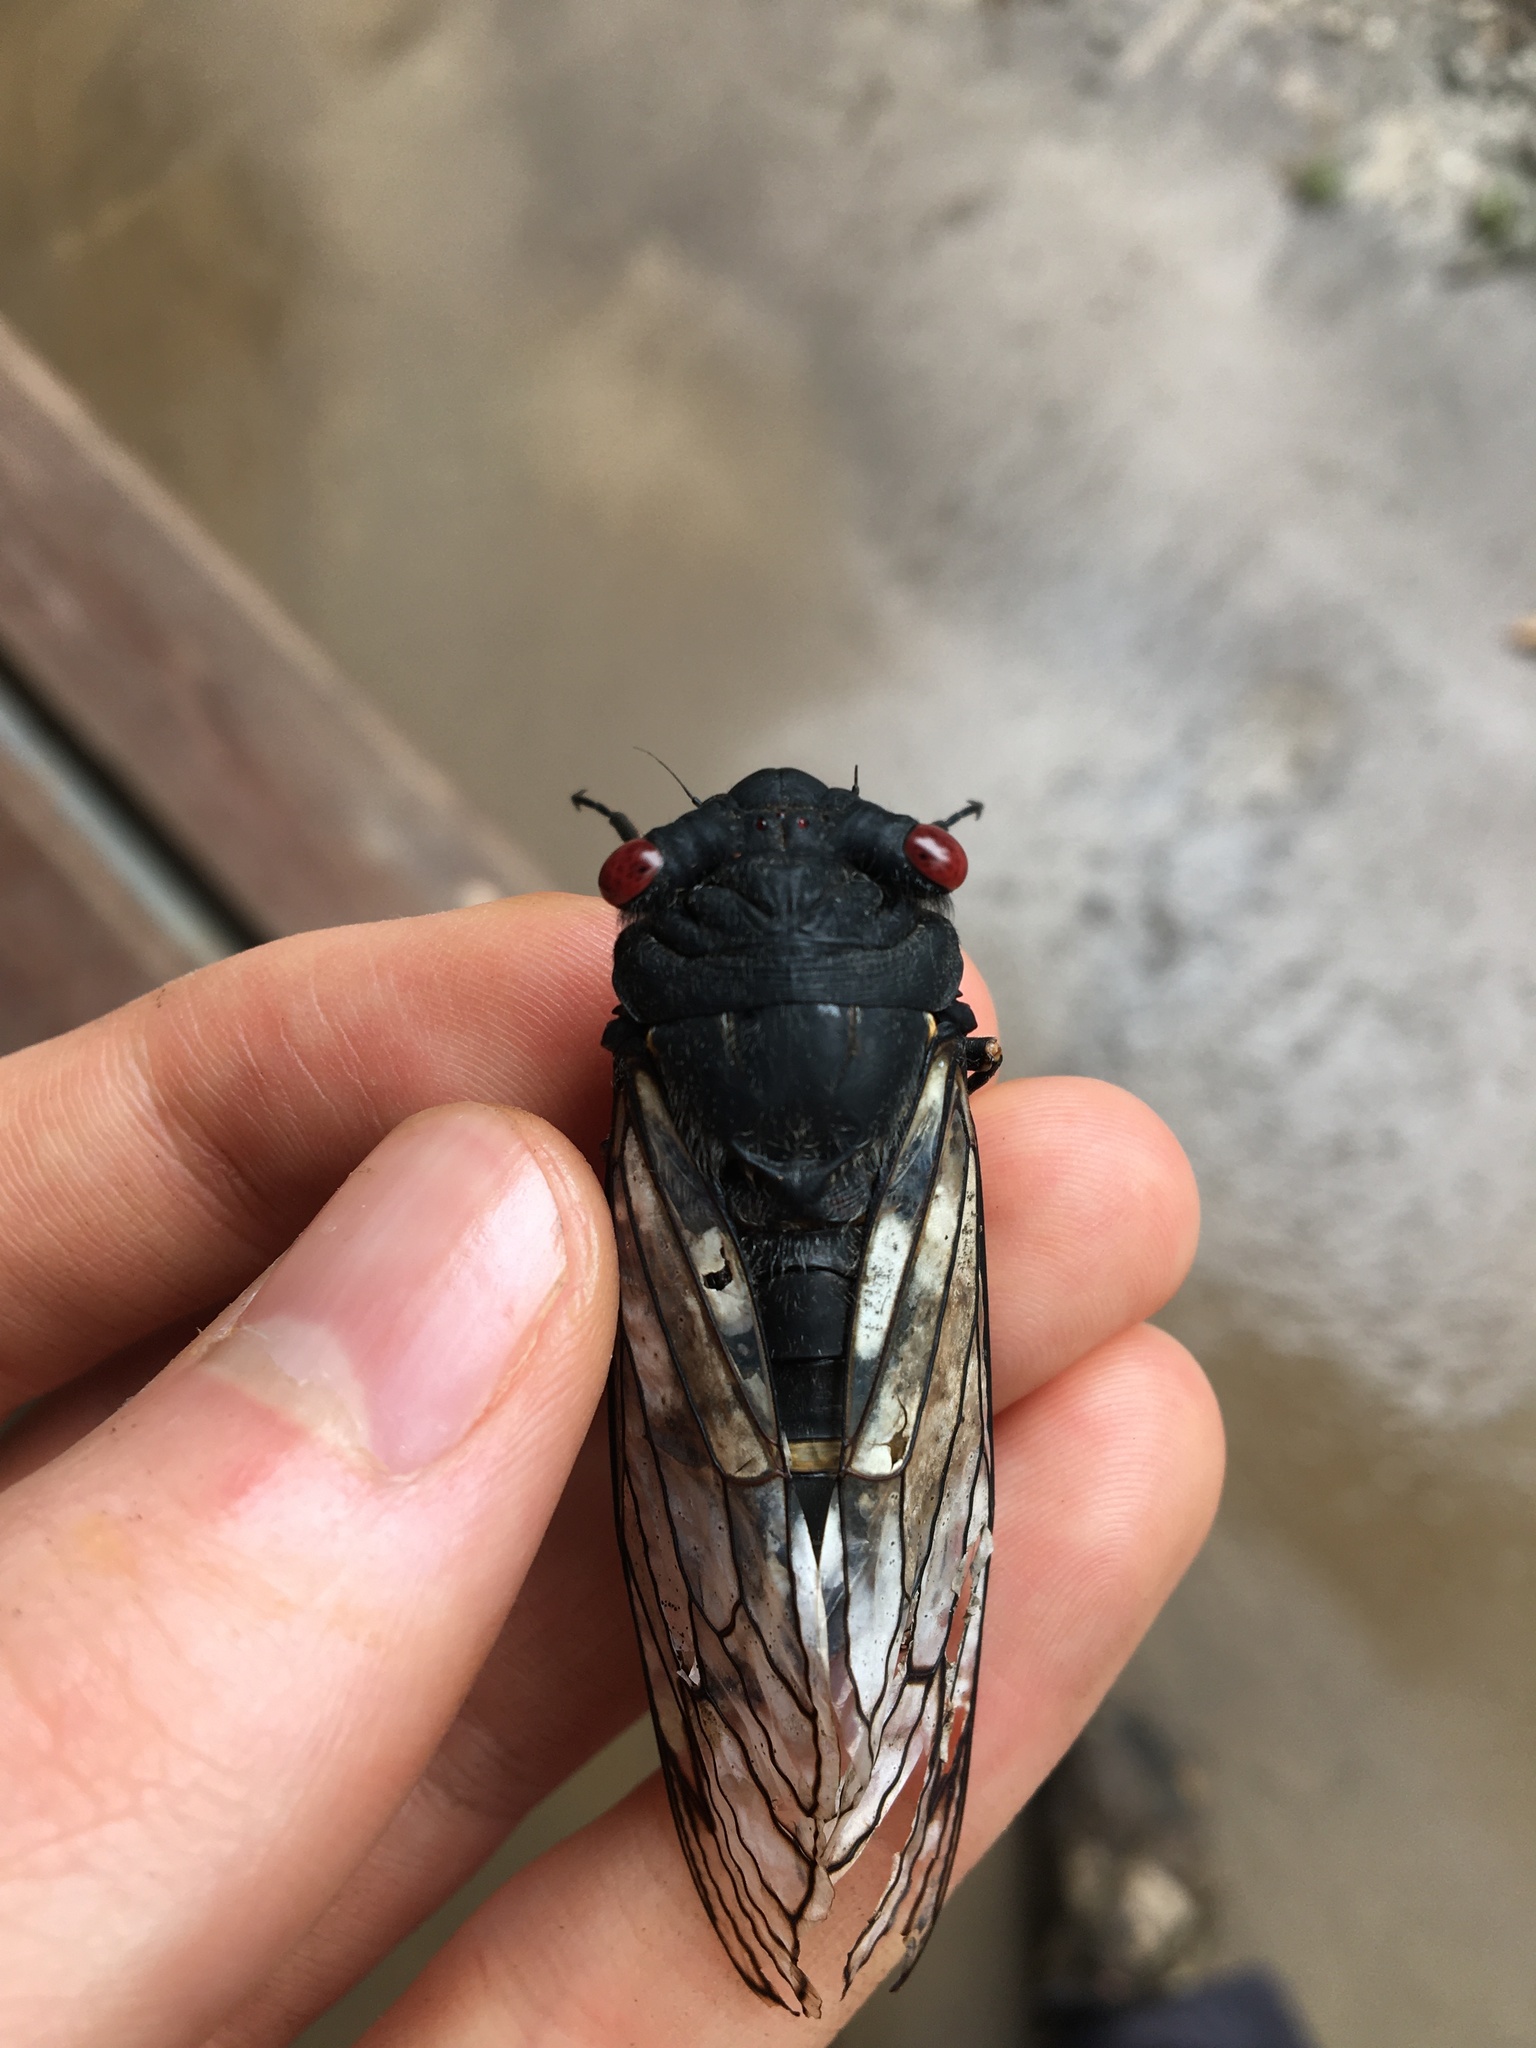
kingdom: Animalia
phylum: Arthropoda
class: Insecta
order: Hemiptera
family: Cicadidae
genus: Psaltoda
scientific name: Psaltoda moerens
